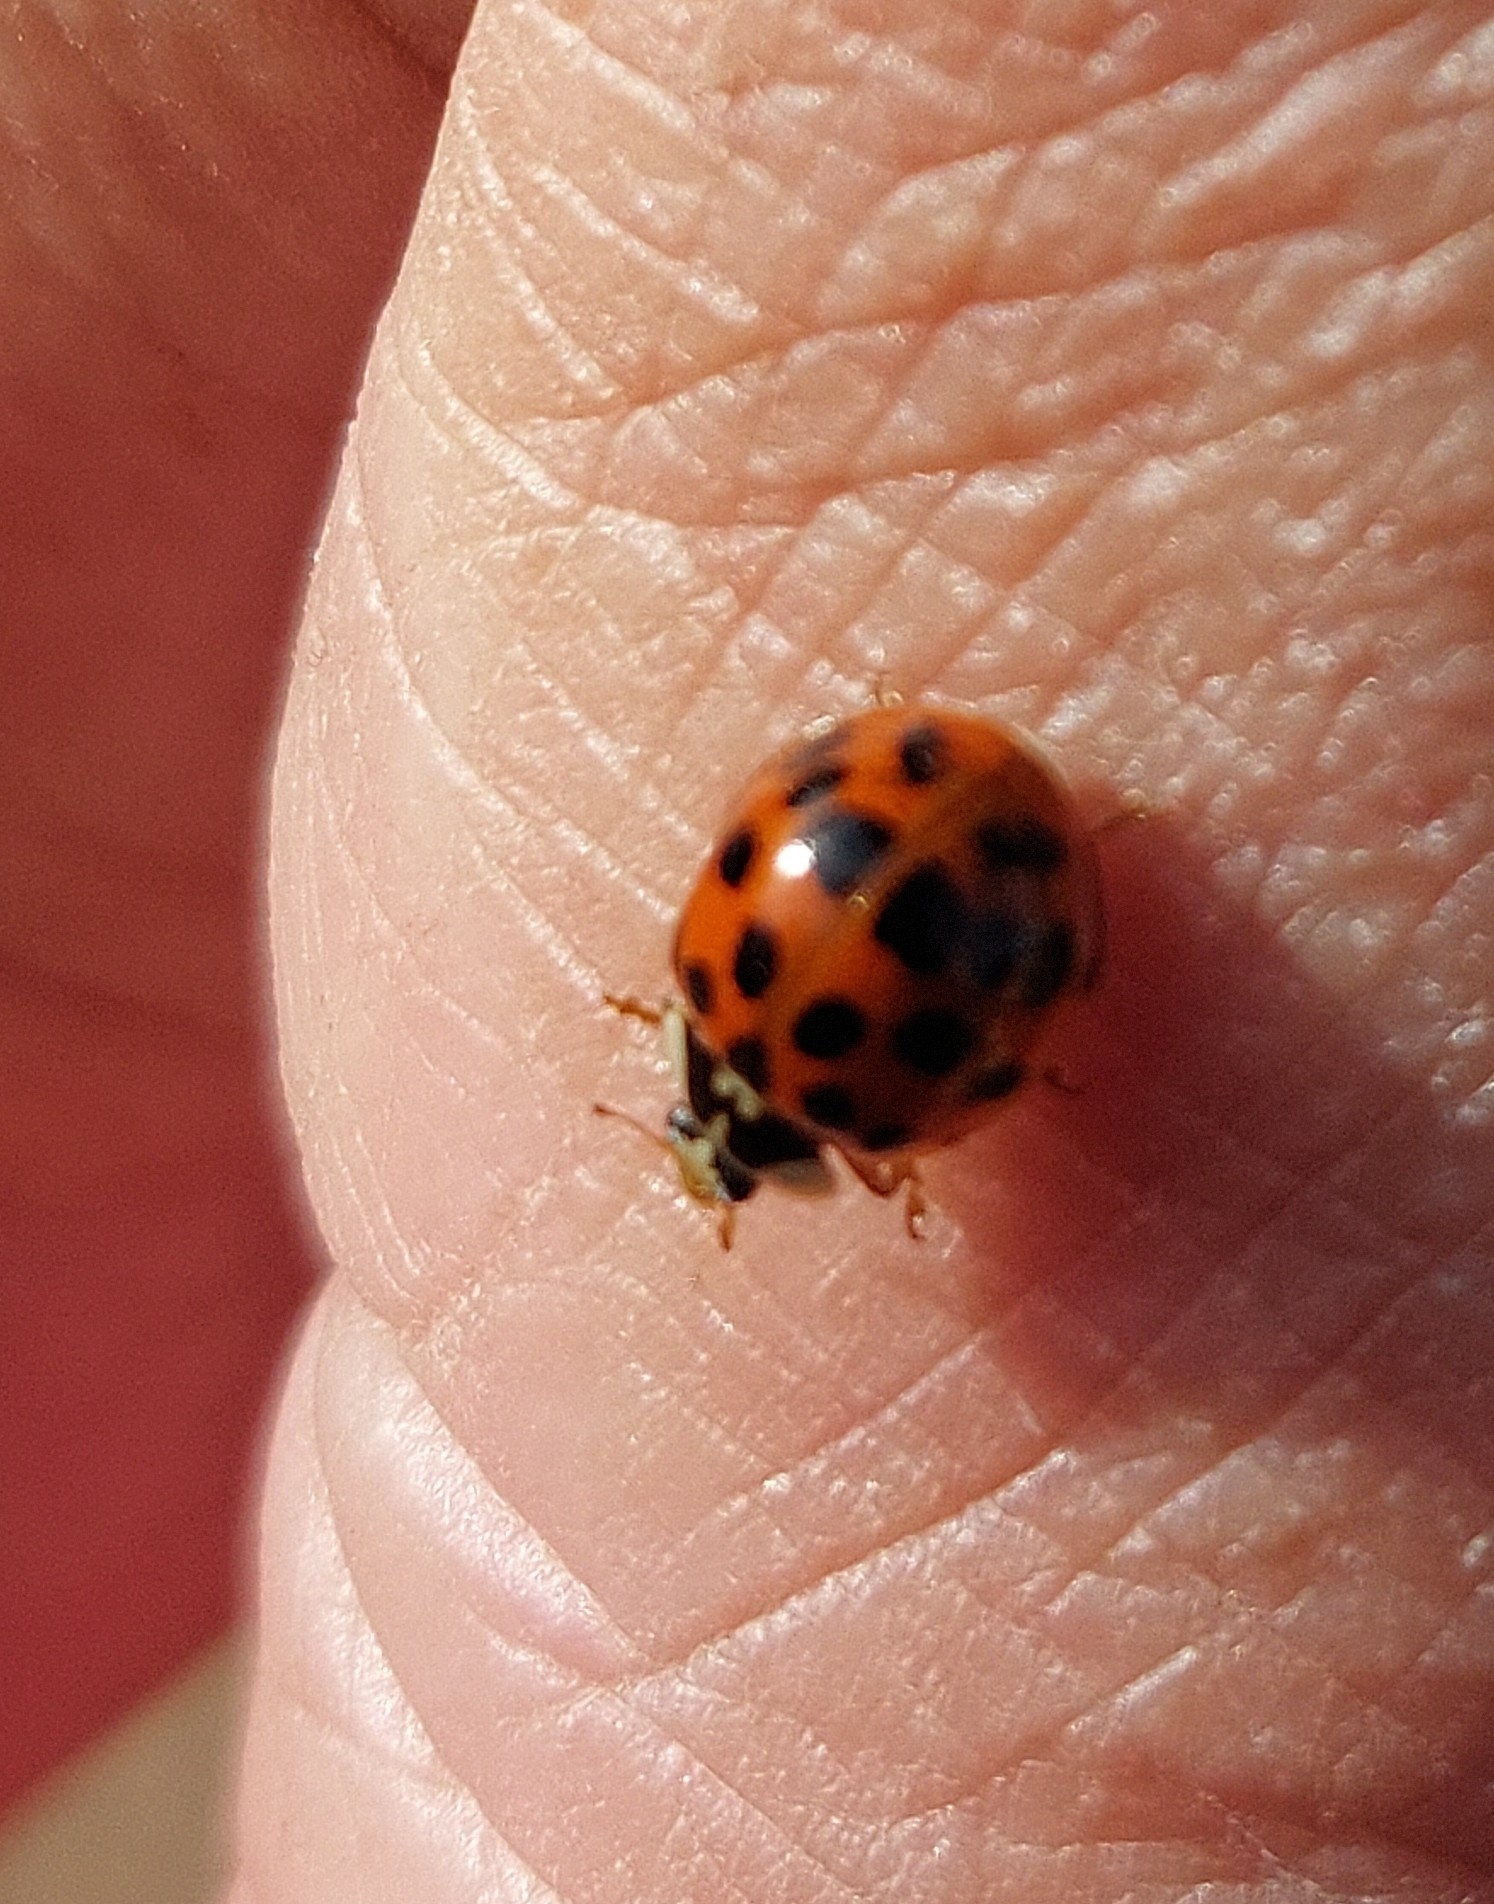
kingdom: Animalia
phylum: Arthropoda
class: Insecta
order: Coleoptera
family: Coccinellidae
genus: Harmonia
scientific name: Harmonia axyridis
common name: Harlequin ladybird
